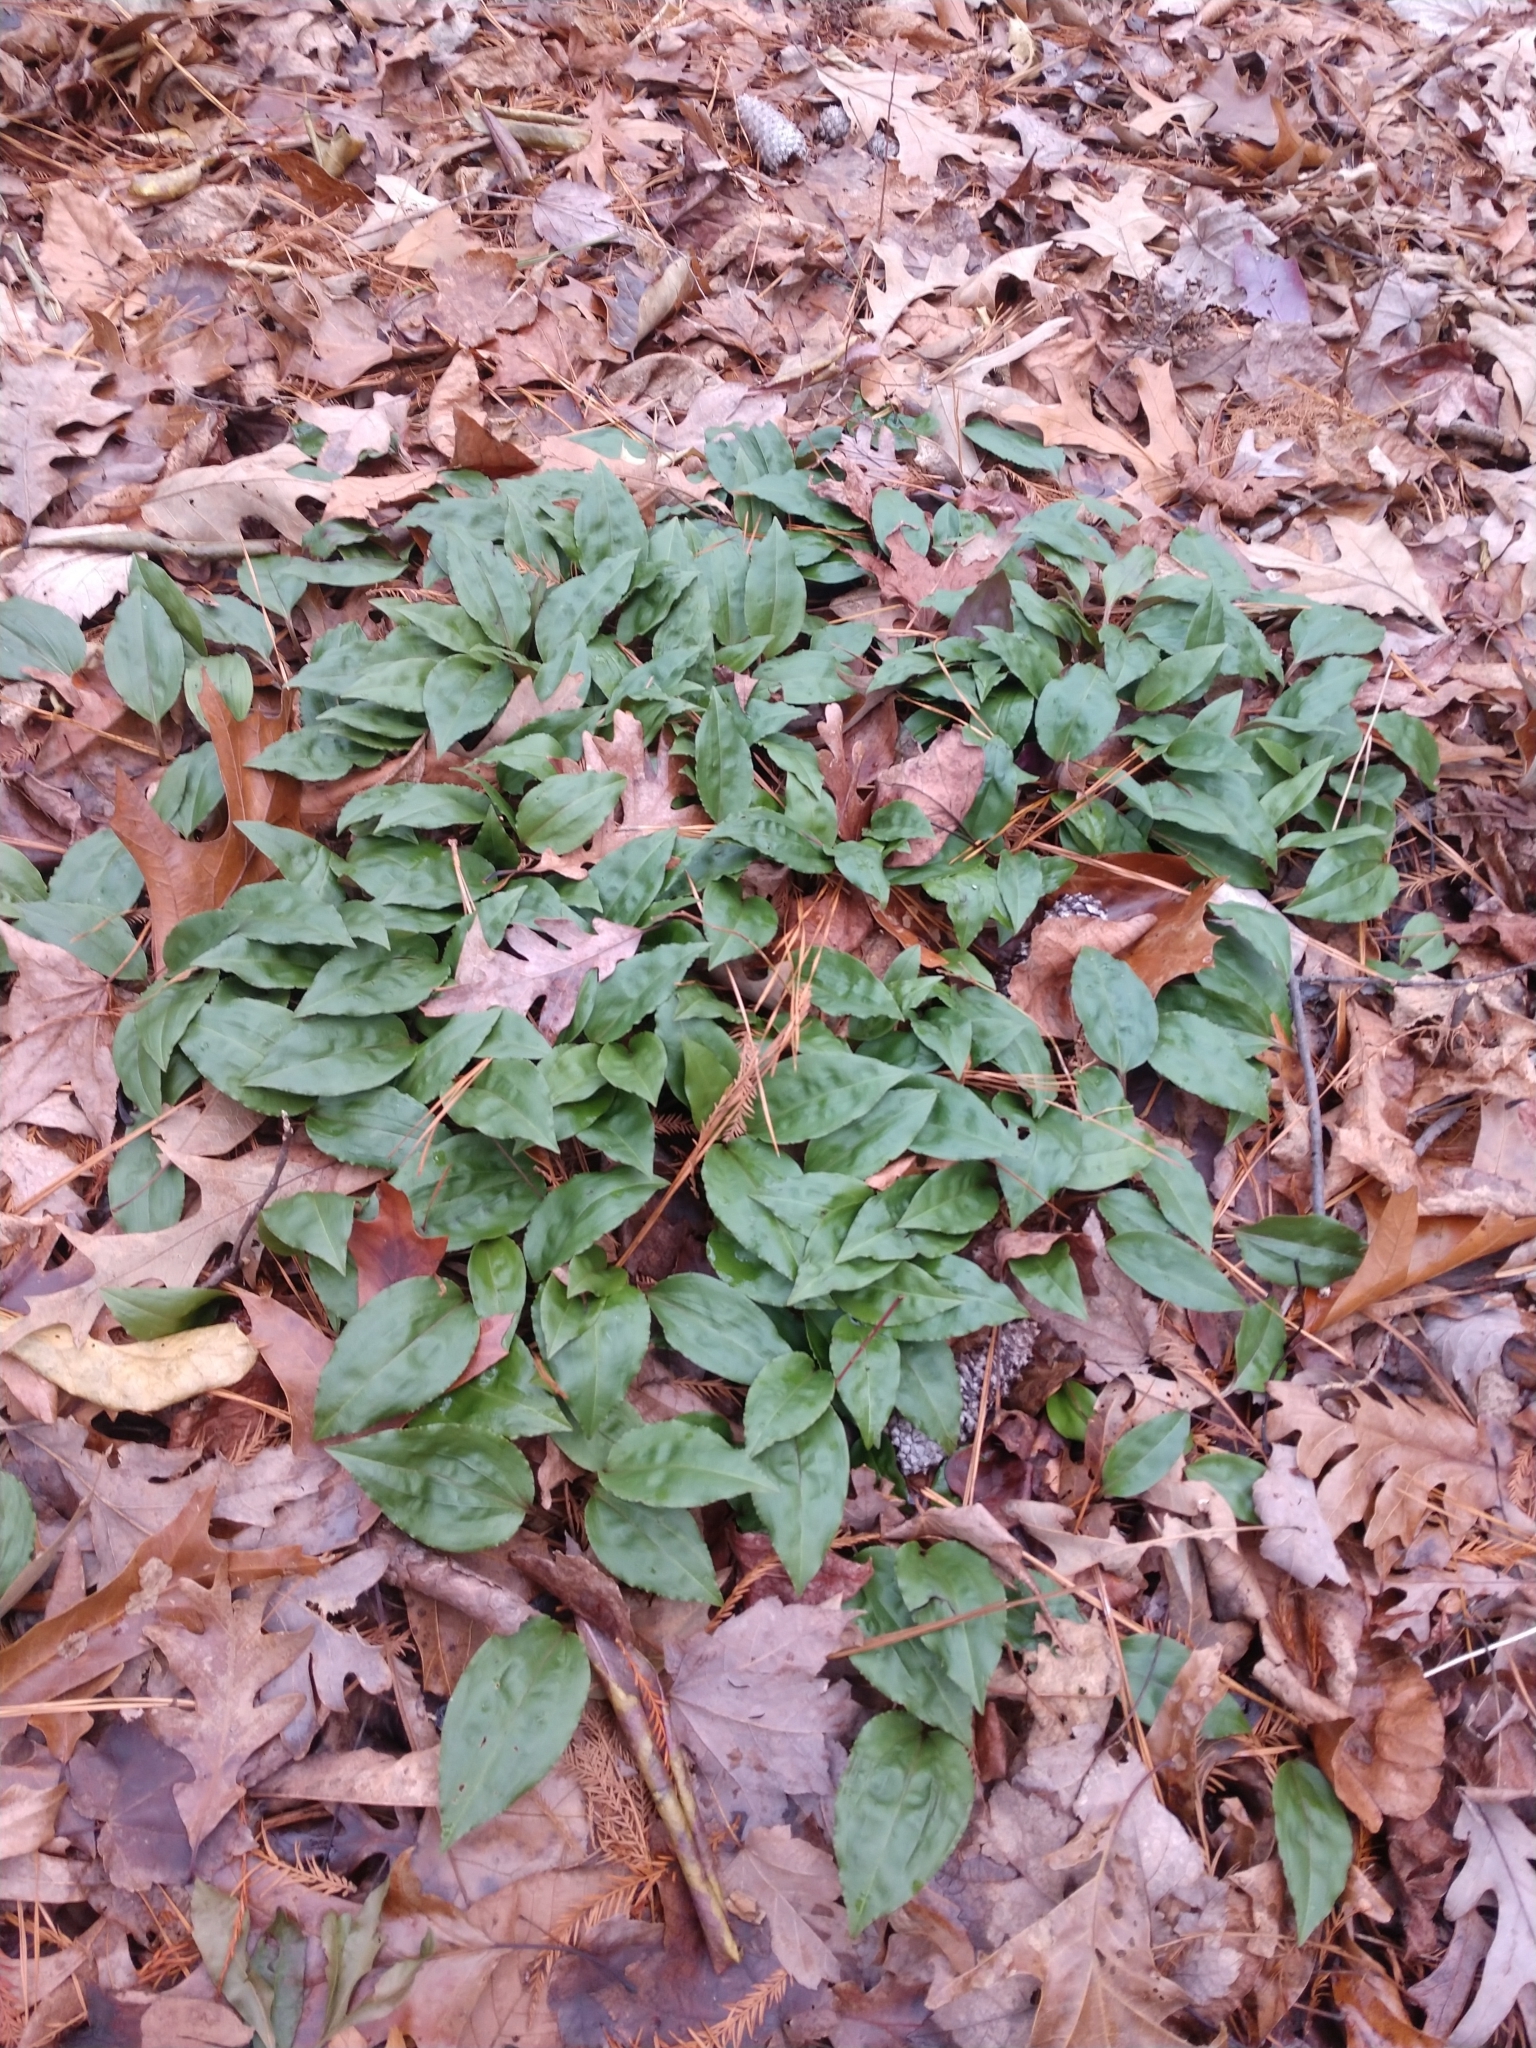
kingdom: Plantae
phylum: Tracheophyta
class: Liliopsida
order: Asparagales
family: Orchidaceae
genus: Tipularia
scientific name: Tipularia discolor
